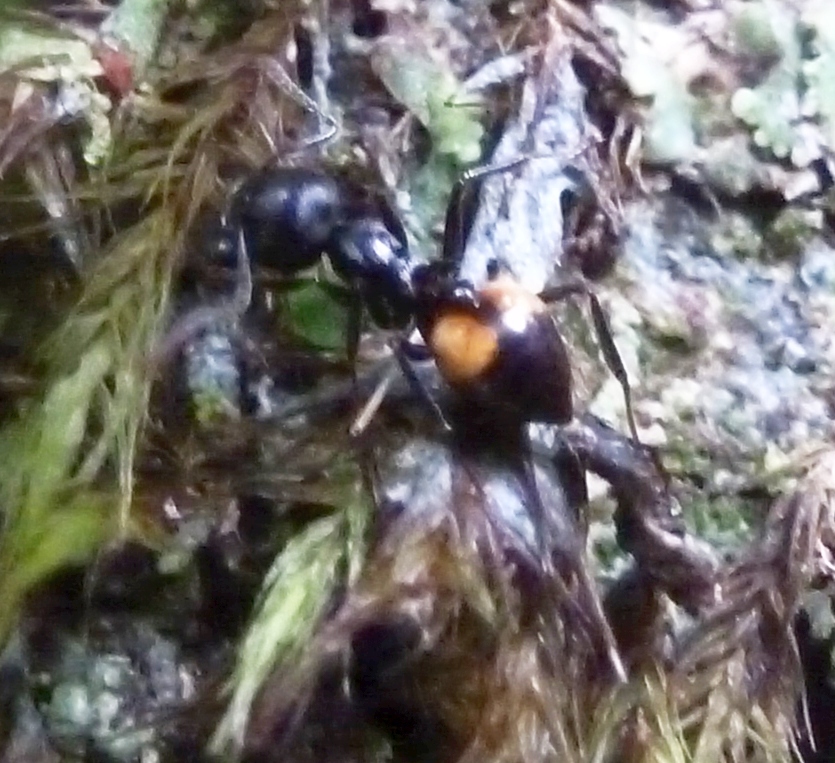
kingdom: Animalia
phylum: Arthropoda
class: Insecta
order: Hymenoptera
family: Formicidae
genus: Crematogaster
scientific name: Crematogaster schencki
